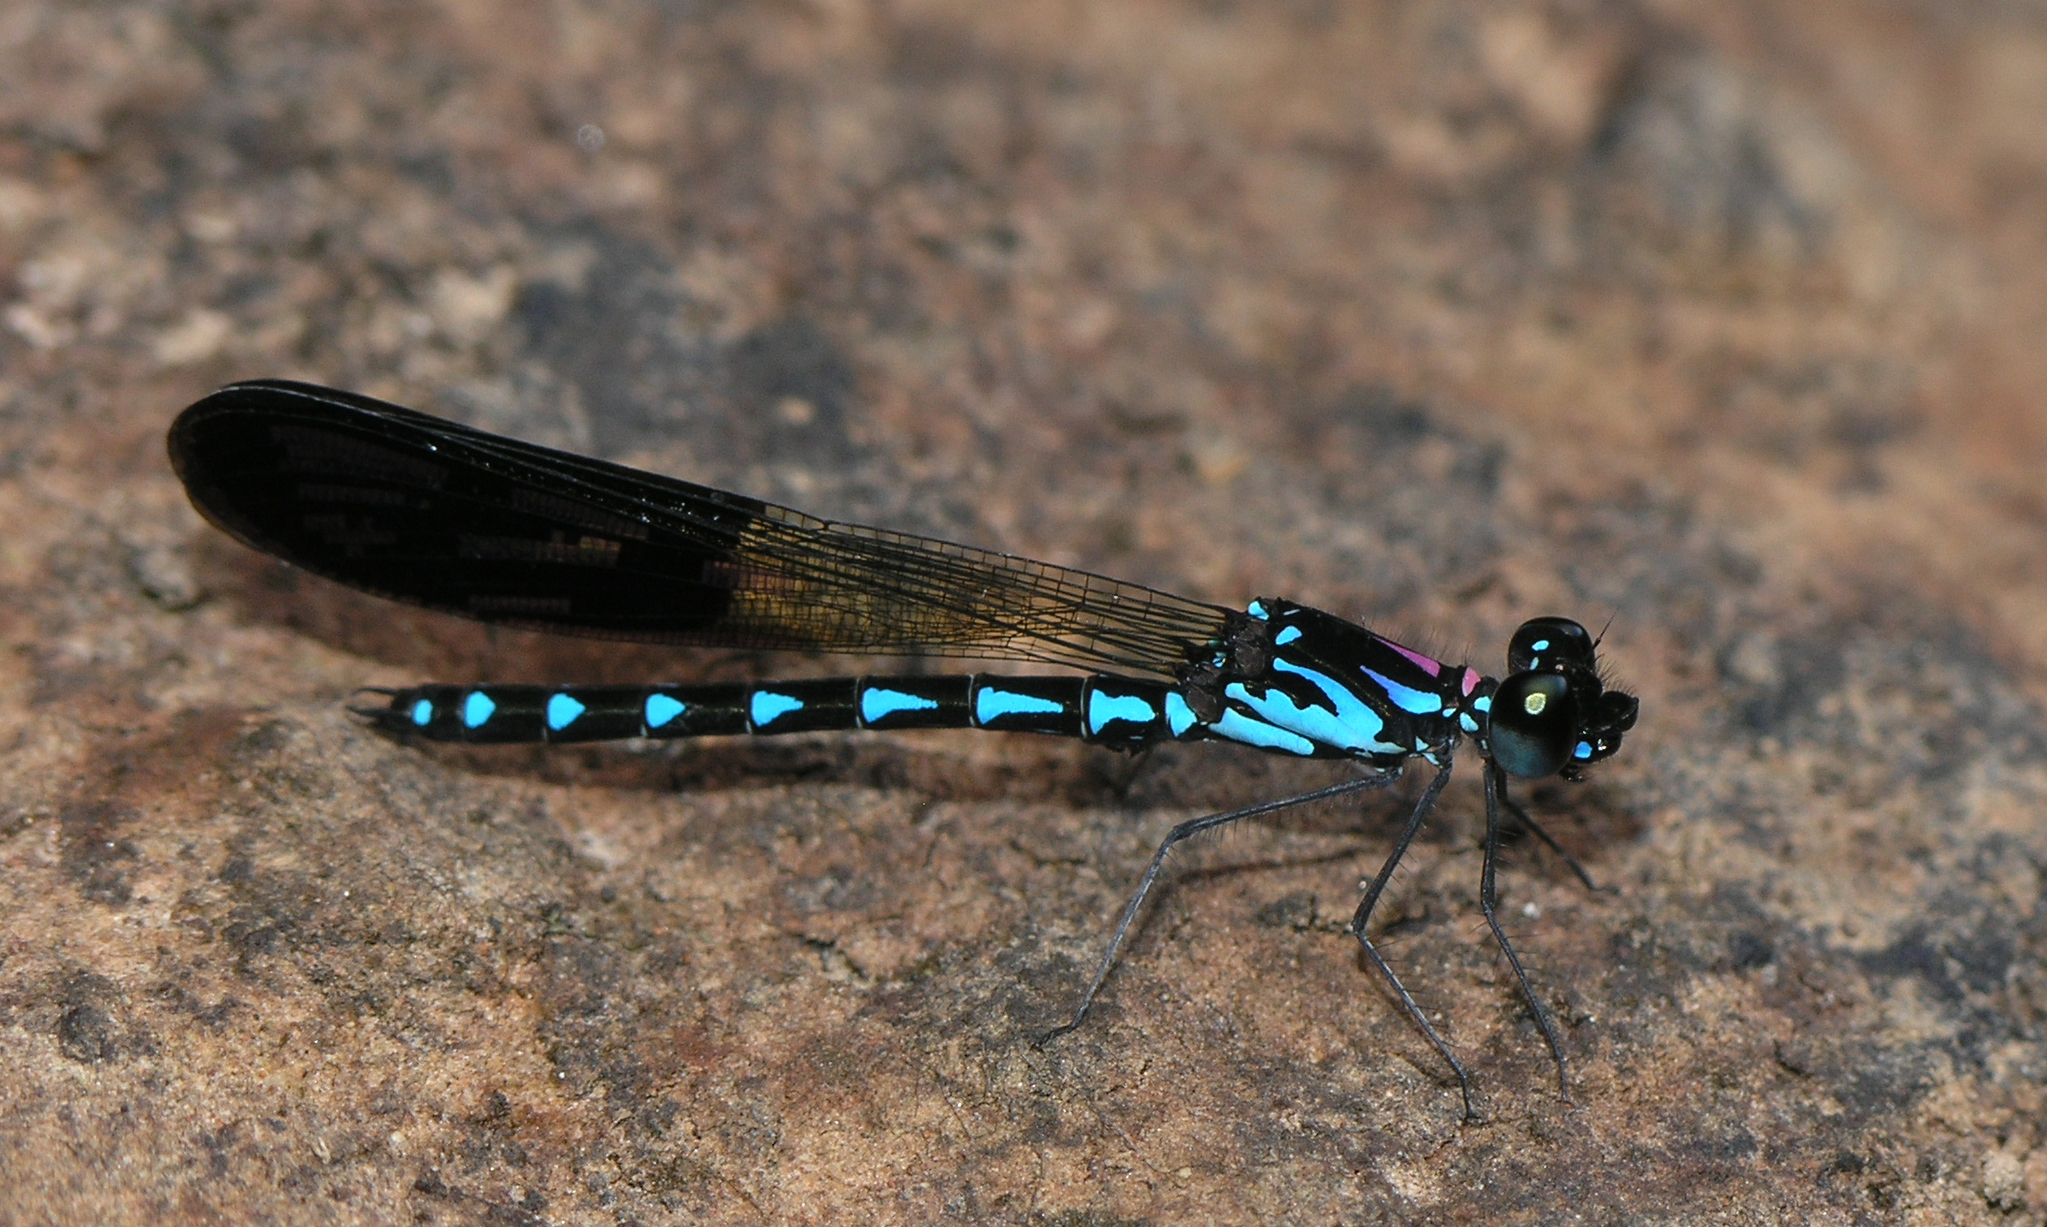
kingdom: Animalia
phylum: Arthropoda
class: Insecta
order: Odonata
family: Chlorocyphidae
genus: Heliocypha
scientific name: Heliocypha perforata
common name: Common blue jewel
